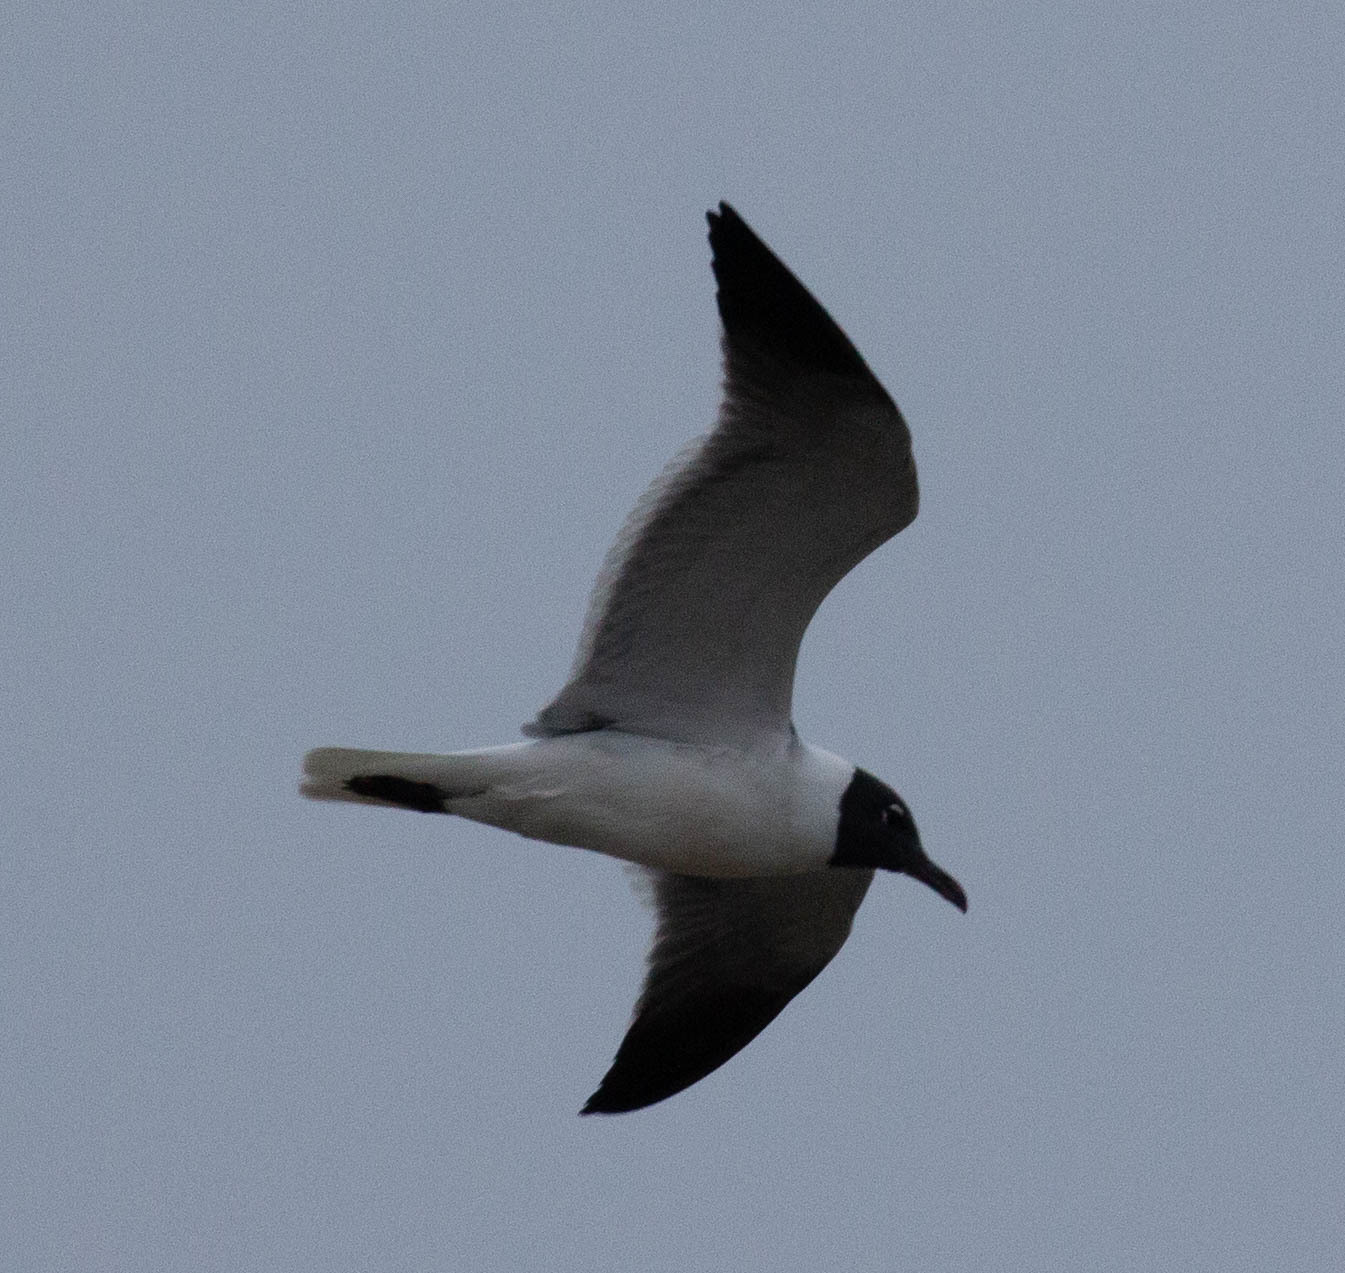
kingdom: Animalia
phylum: Chordata
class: Aves
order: Charadriiformes
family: Laridae
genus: Leucophaeus
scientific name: Leucophaeus atricilla
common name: Laughing gull
